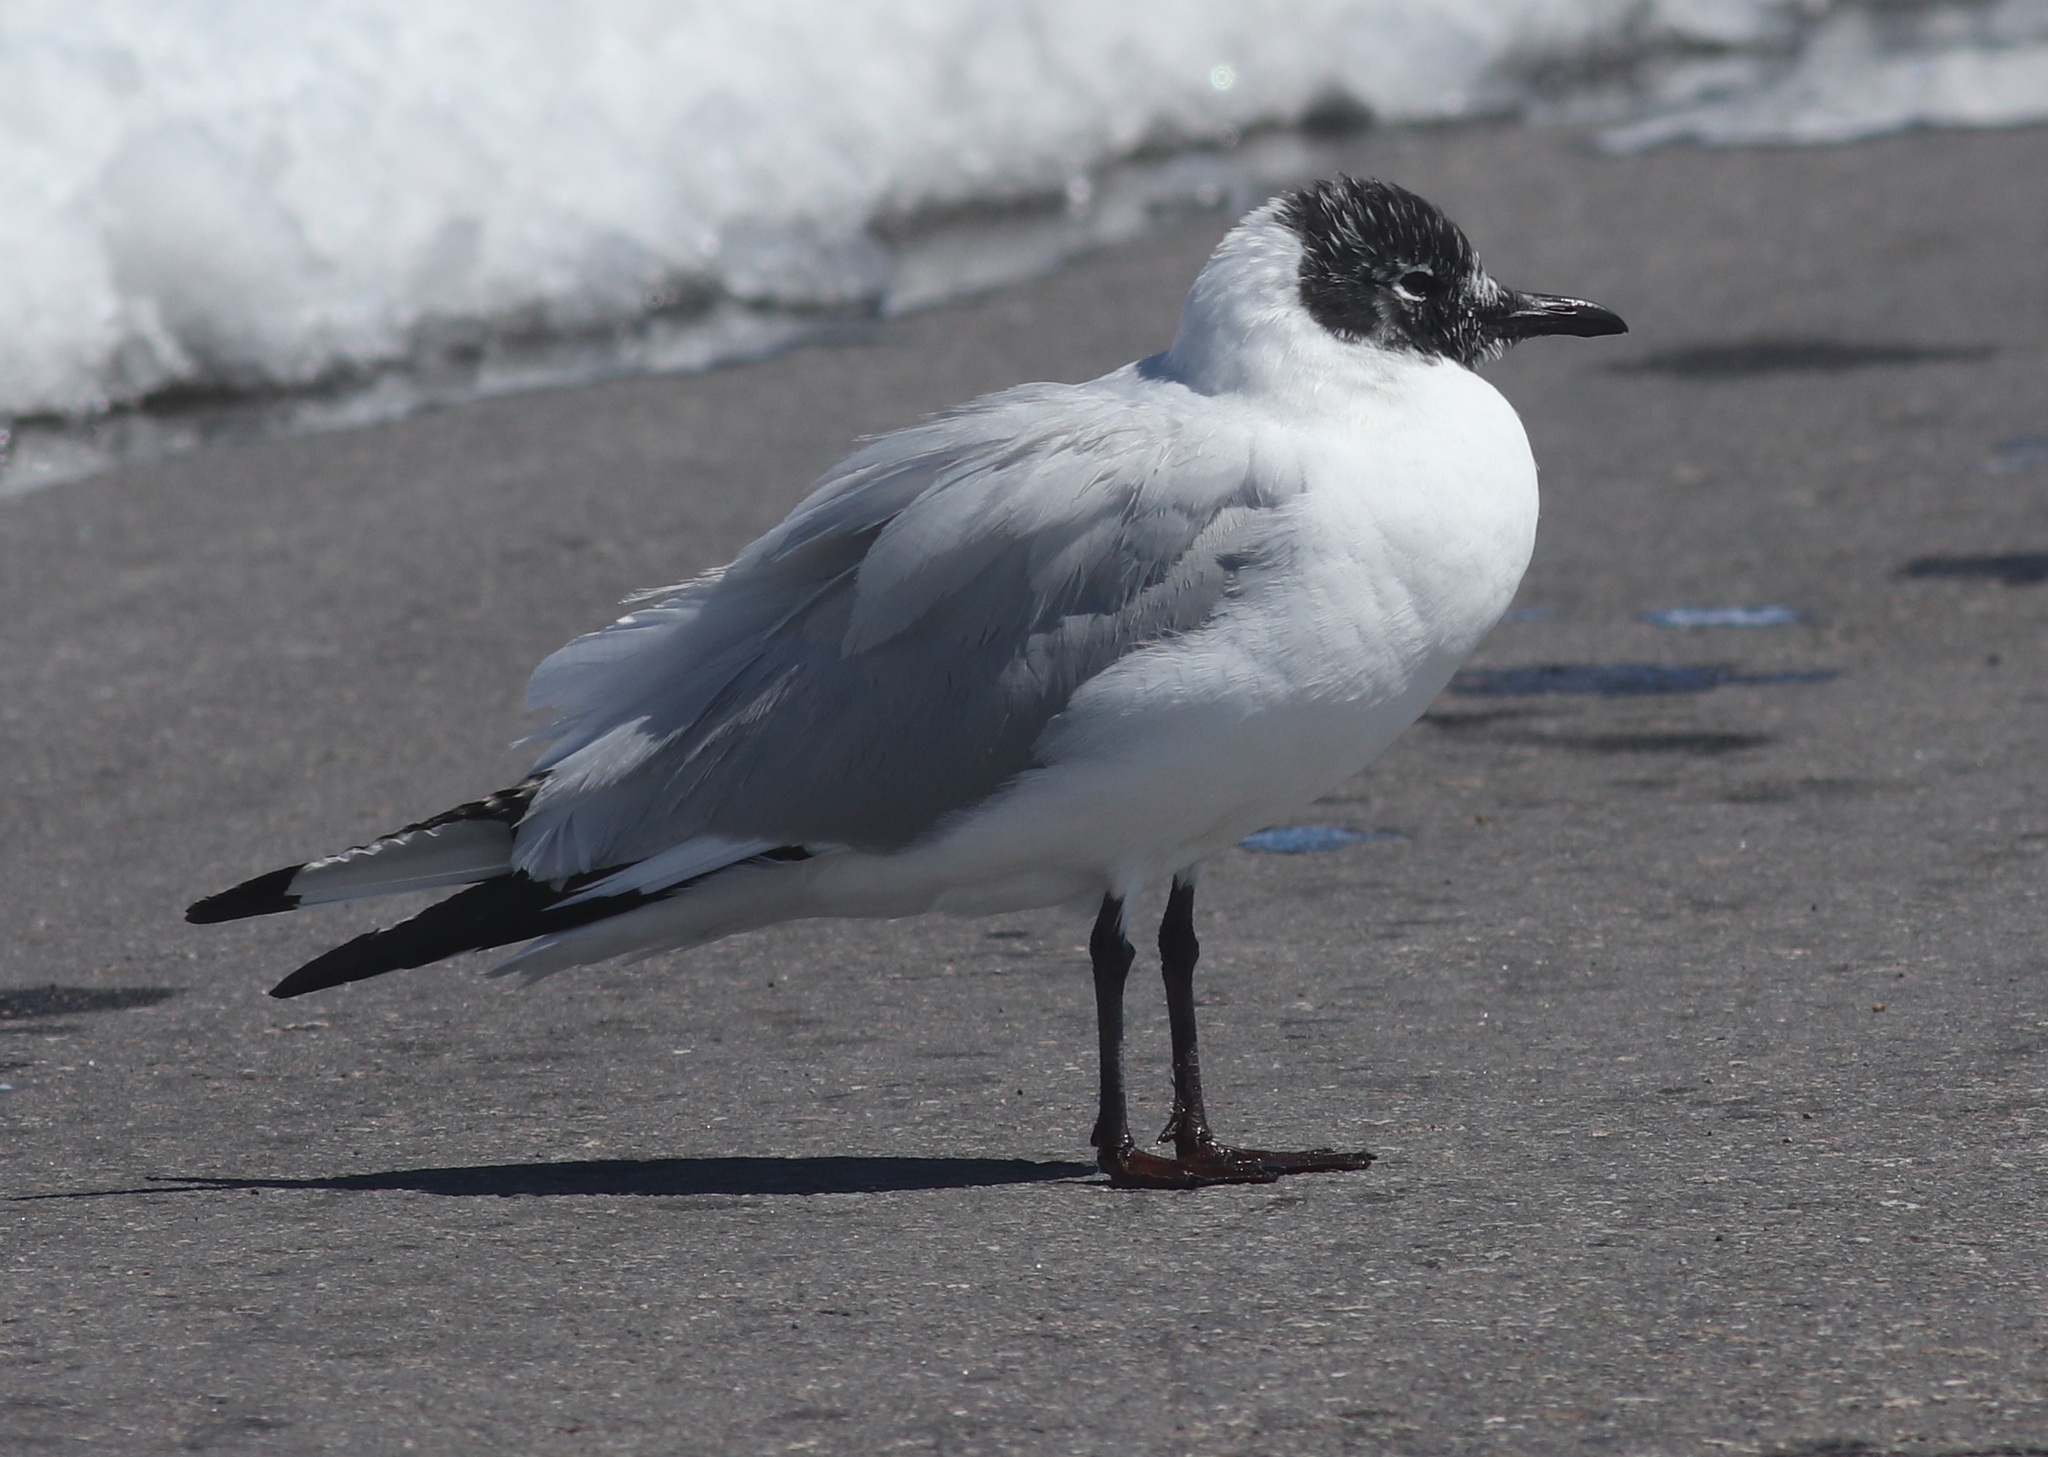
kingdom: Animalia
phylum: Chordata
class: Aves
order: Charadriiformes
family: Laridae
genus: Chroicocephalus
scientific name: Chroicocephalus serranus
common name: Andean gull
